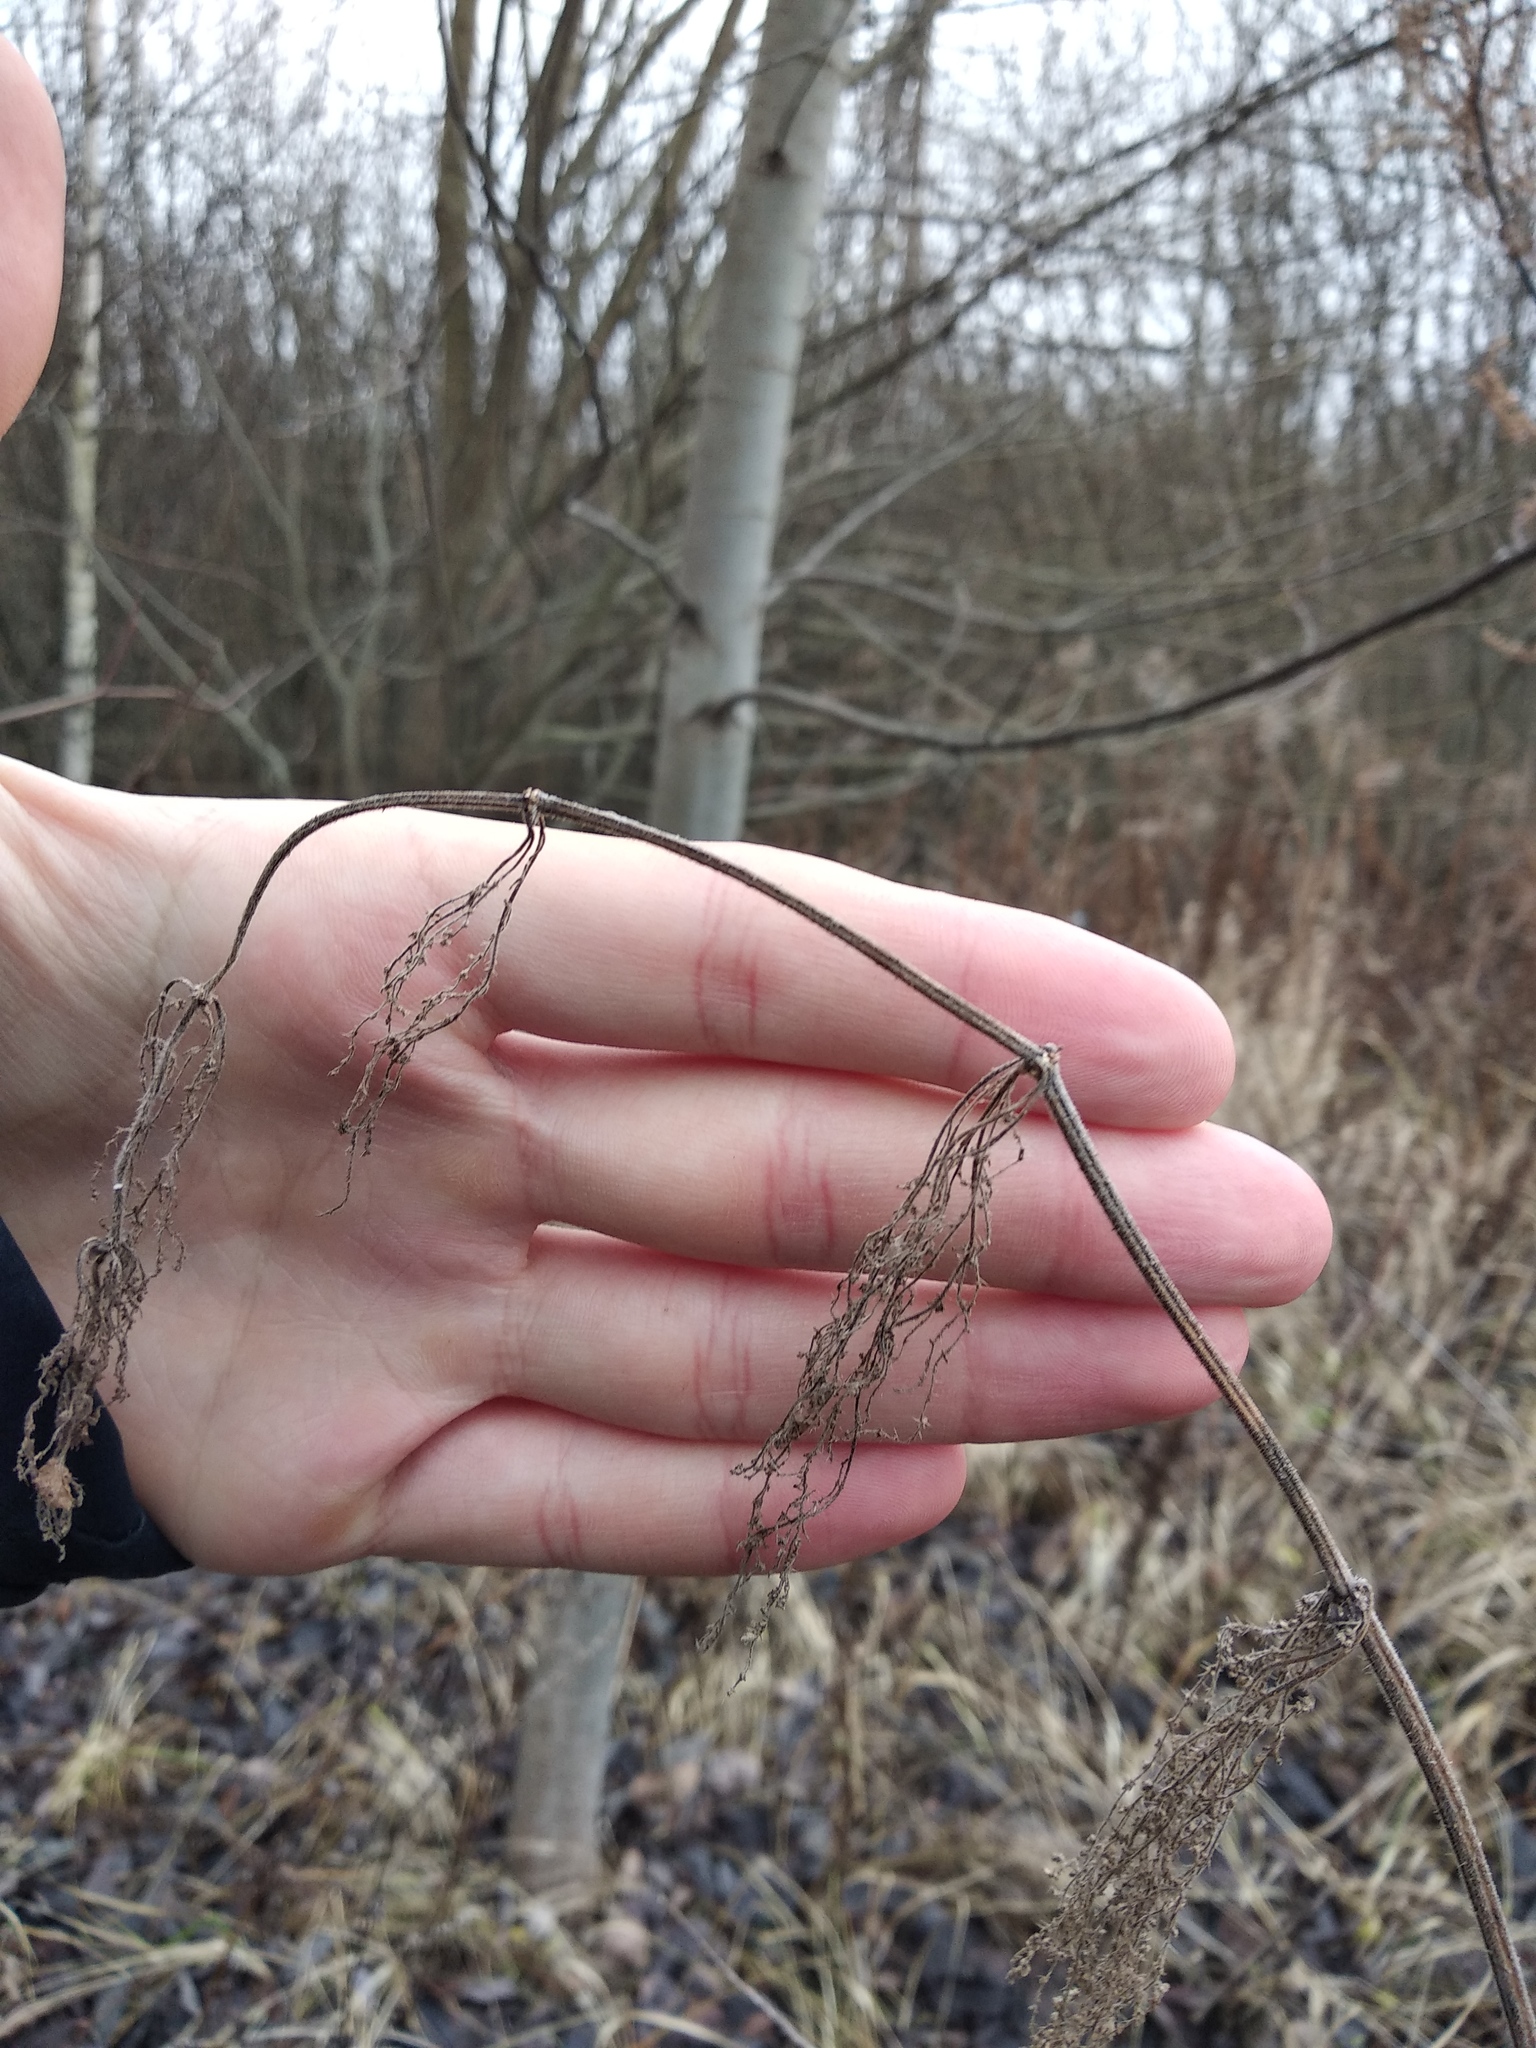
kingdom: Plantae
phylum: Tracheophyta
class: Magnoliopsida
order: Rosales
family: Urticaceae
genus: Urtica
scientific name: Urtica dioica
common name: Common nettle
